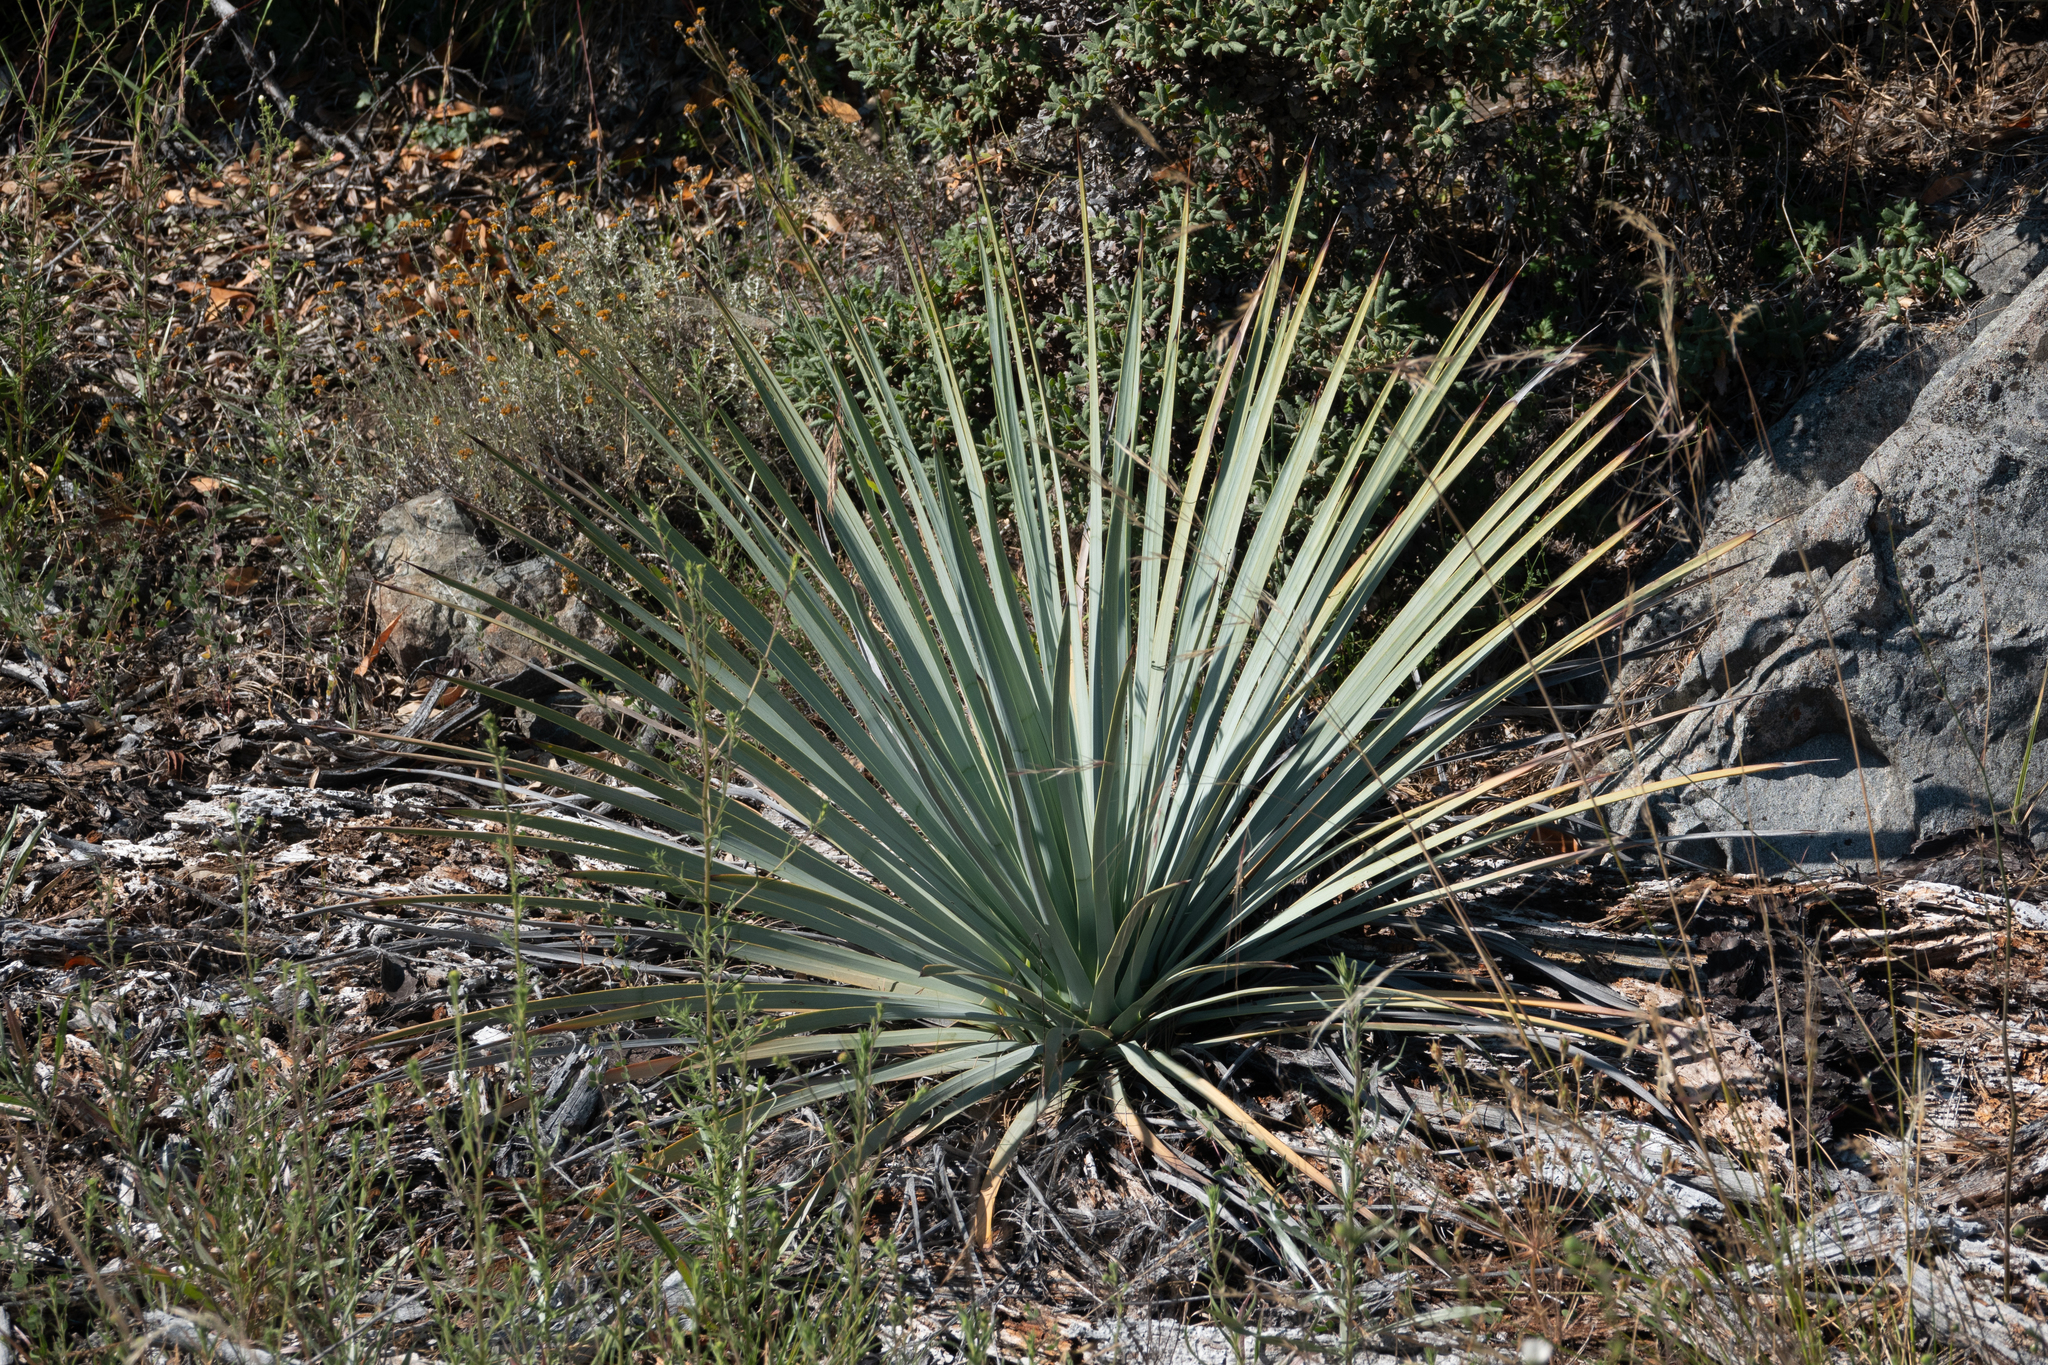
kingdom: Plantae
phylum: Tracheophyta
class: Liliopsida
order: Asparagales
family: Asparagaceae
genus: Hesperoyucca
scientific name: Hesperoyucca whipplei
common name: Our lord's-candle
